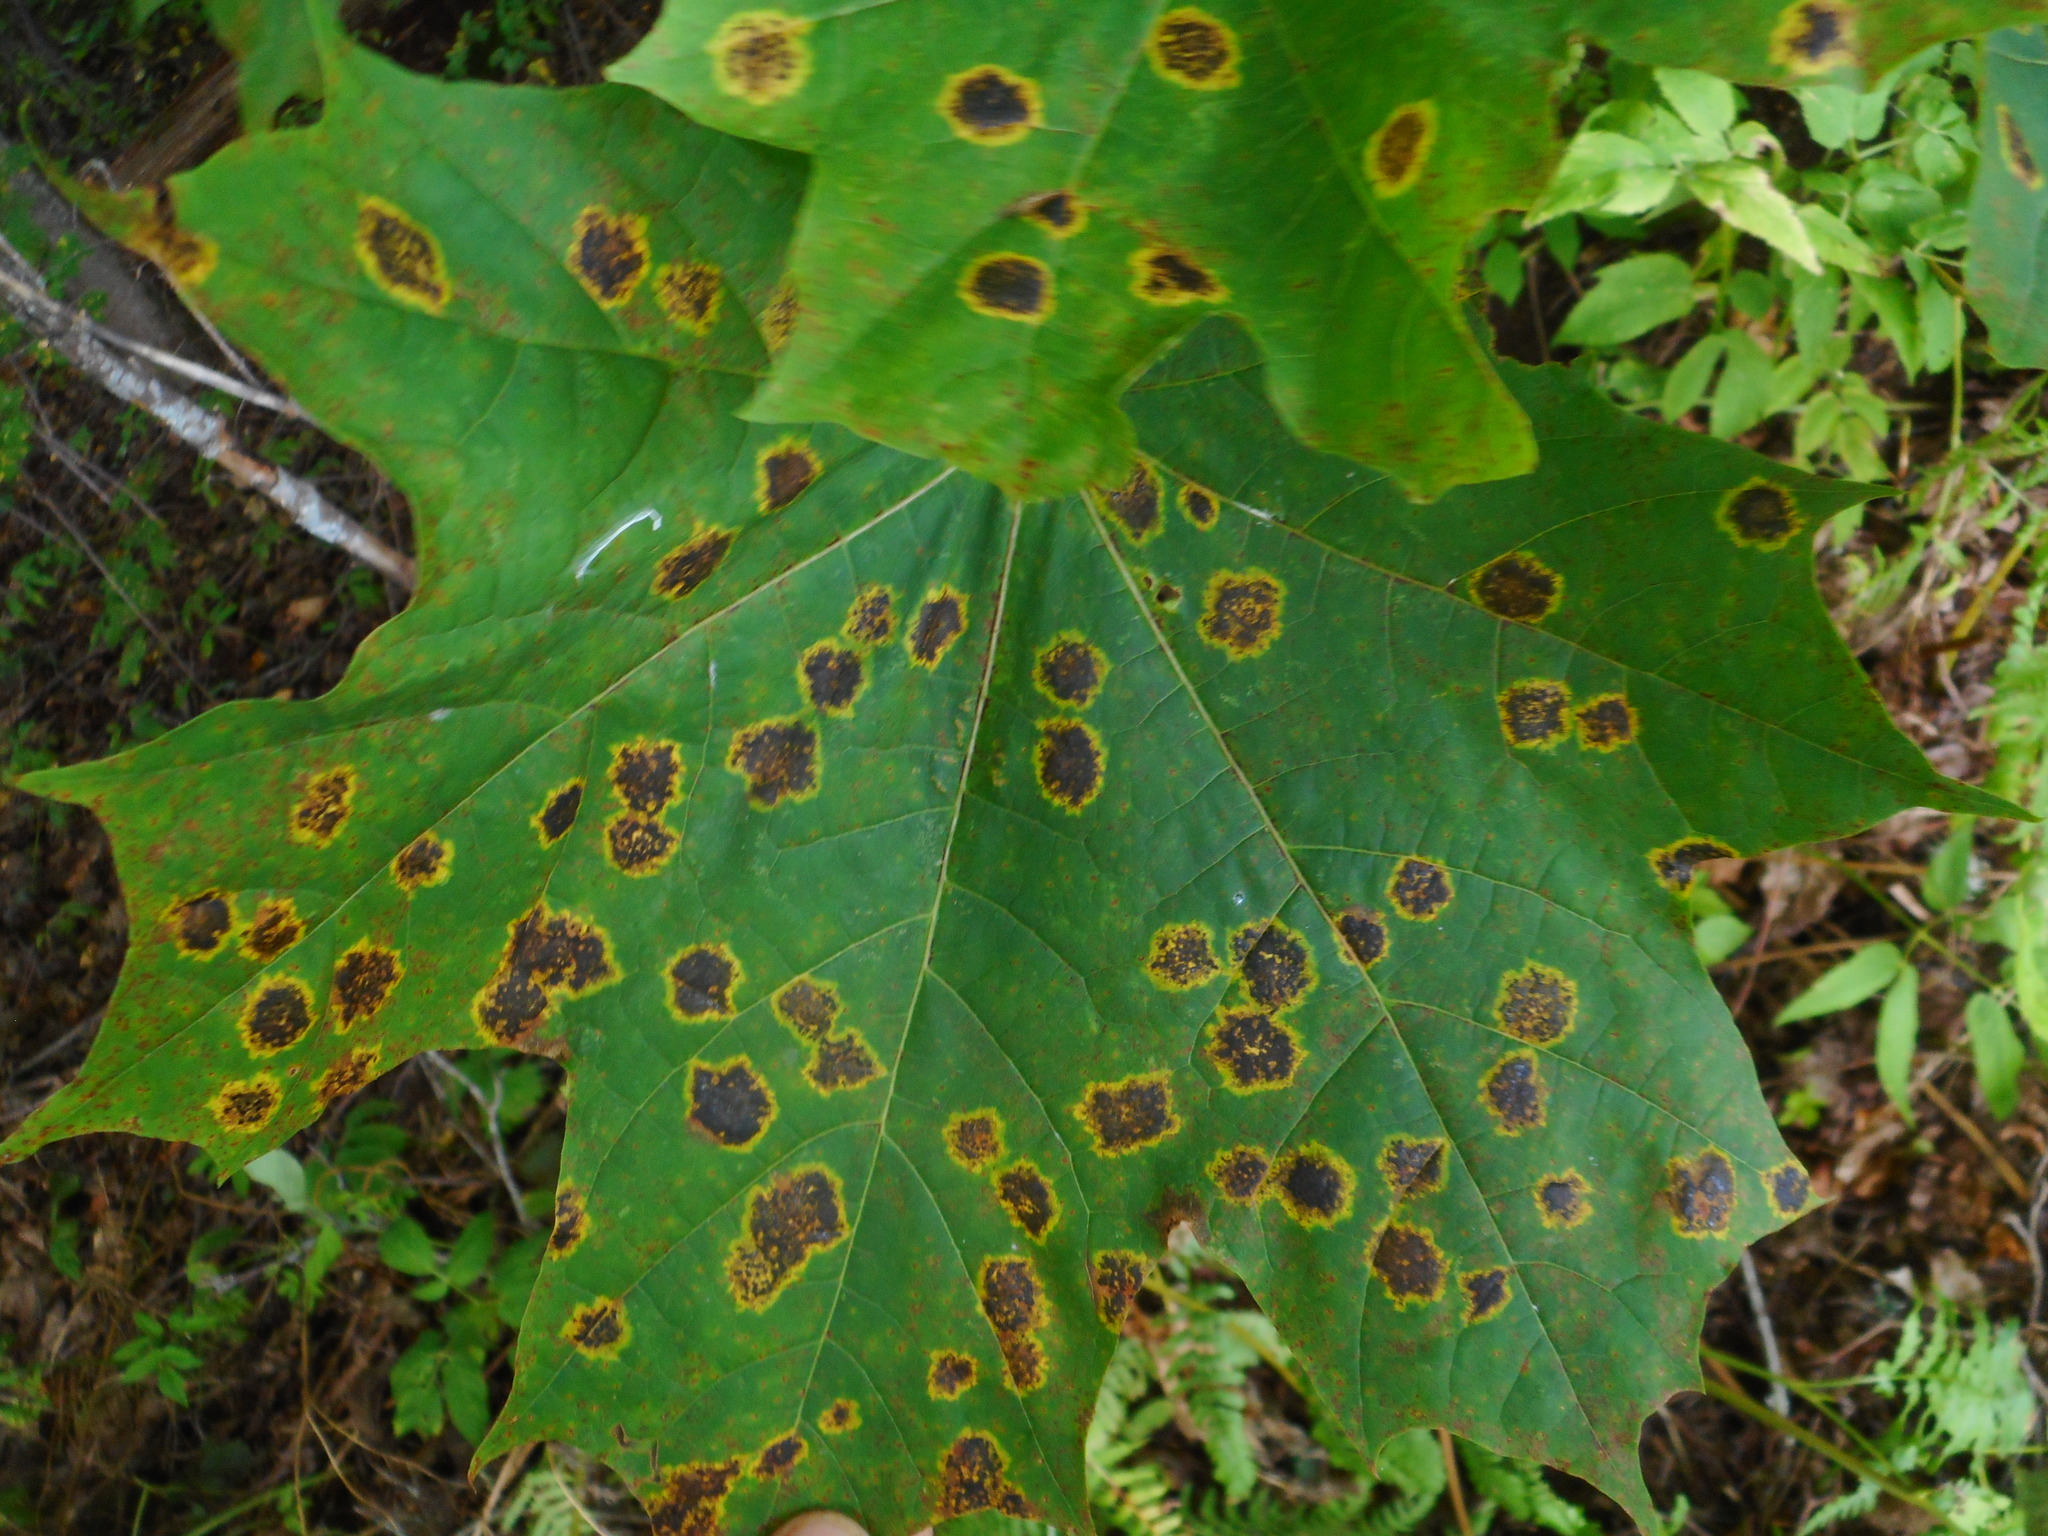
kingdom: Fungi
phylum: Ascomycota
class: Leotiomycetes
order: Rhytismatales
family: Rhytismataceae
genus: Rhytisma
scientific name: Rhytisma acerinum
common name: European tar spot
